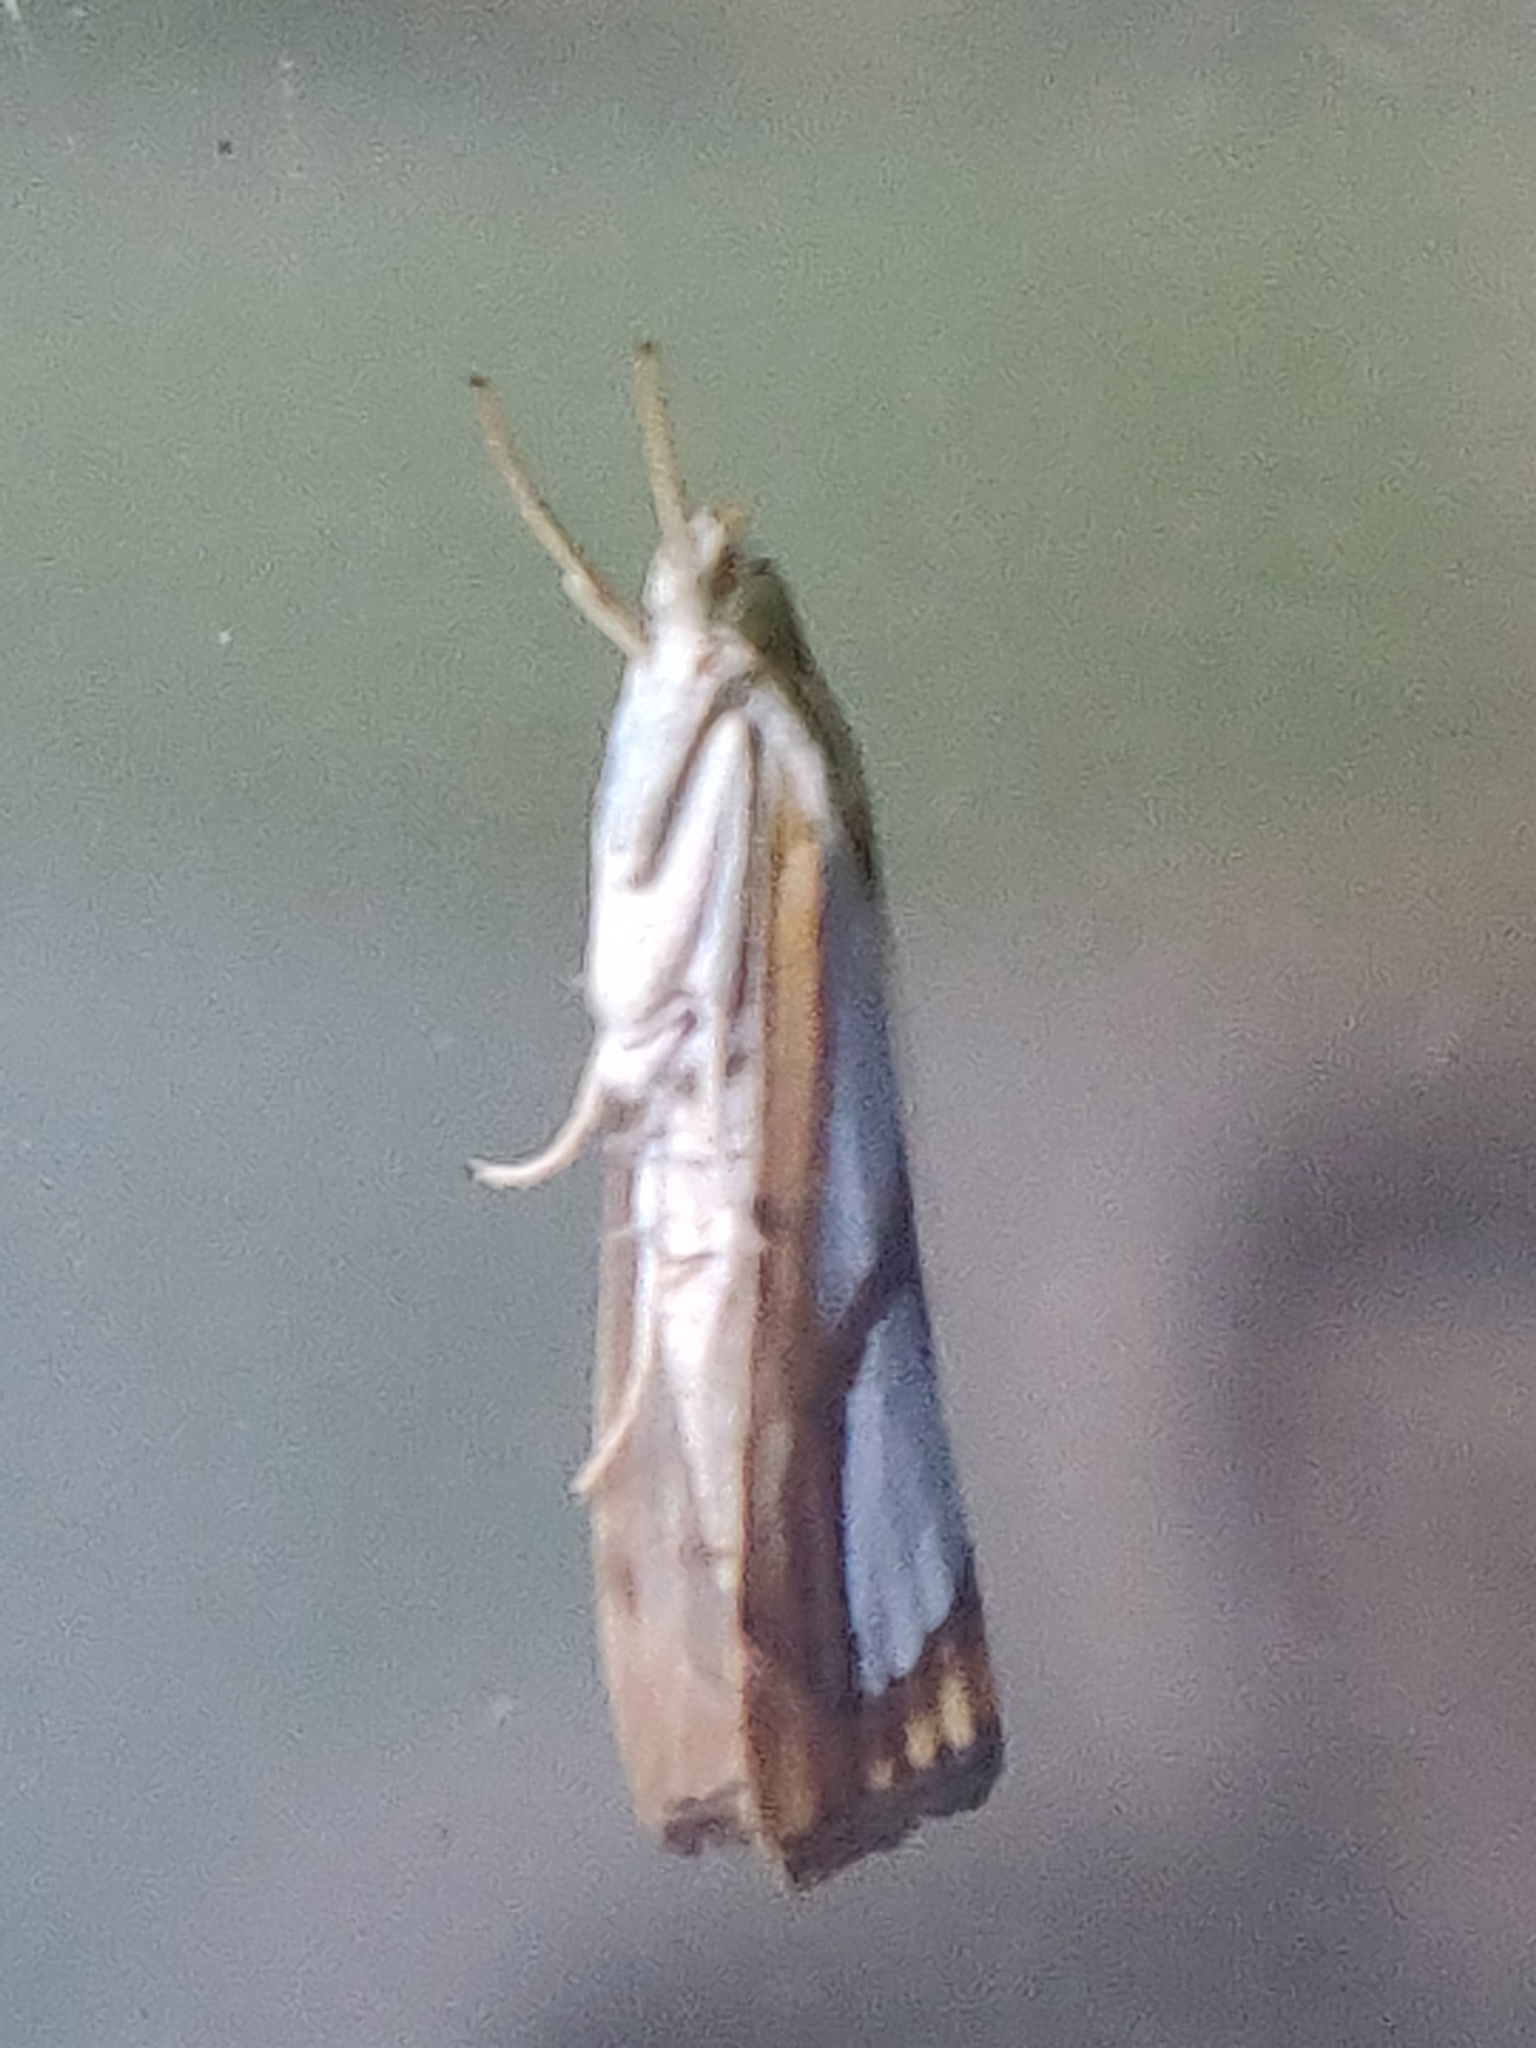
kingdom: Animalia
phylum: Arthropoda
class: Insecta
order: Lepidoptera
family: Crambidae
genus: Catoptria
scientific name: Catoptria pinella
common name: Pearl grass-veneer
